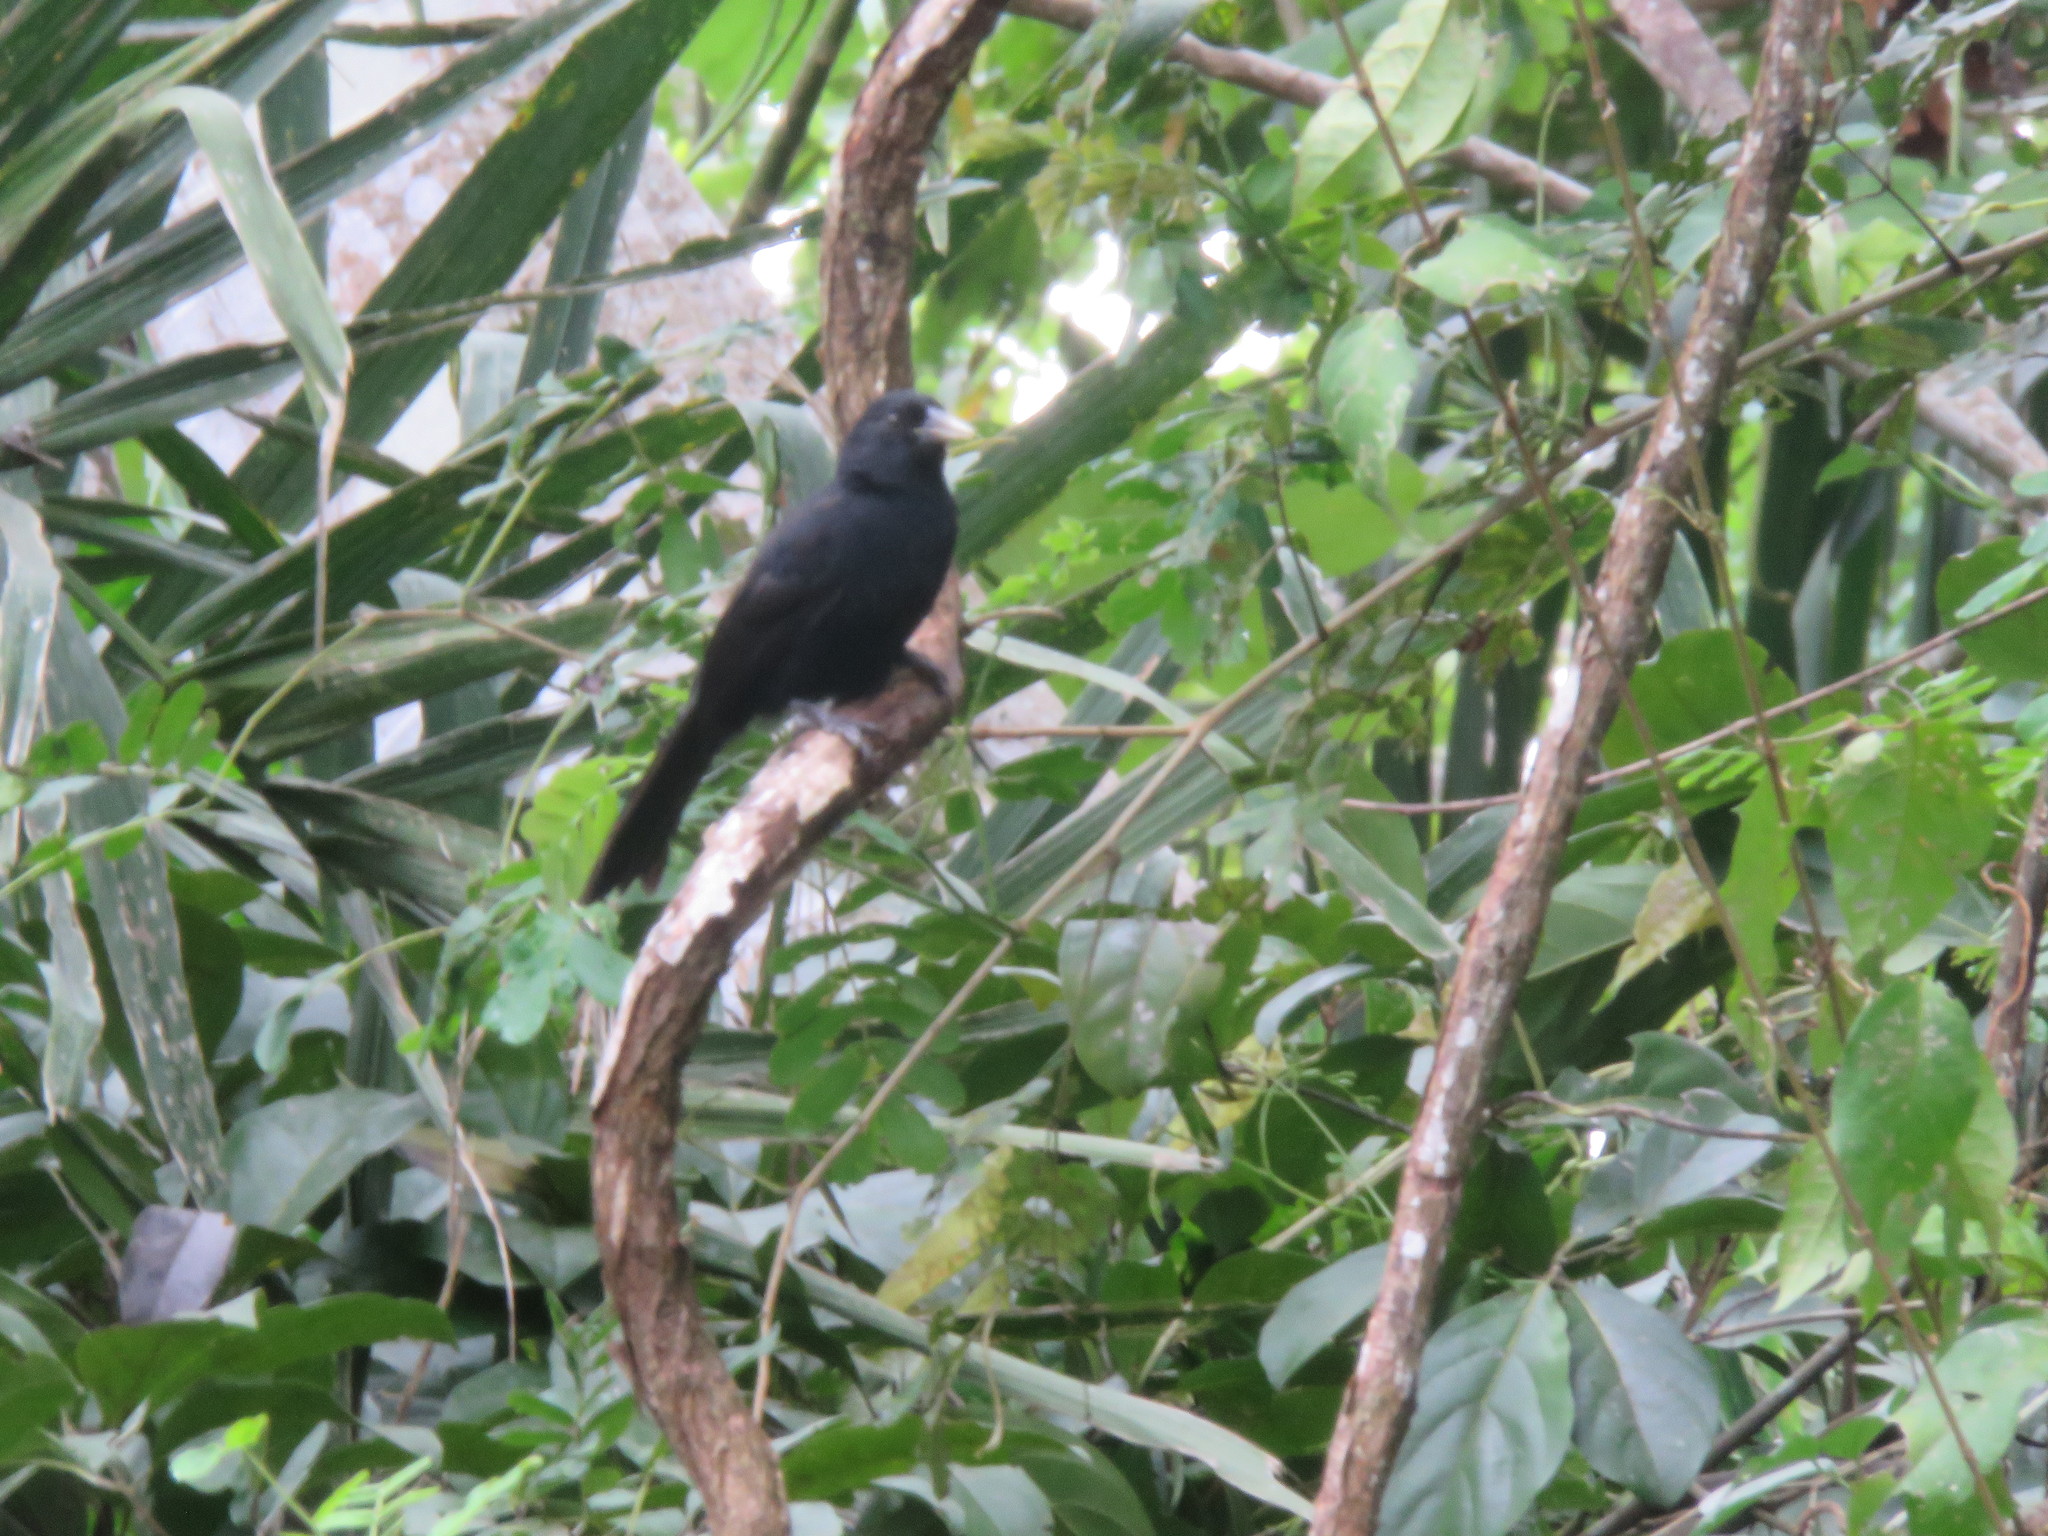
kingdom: Animalia
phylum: Chordata
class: Aves
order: Passeriformes
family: Icteridae
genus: Cacicus
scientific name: Cacicus solitarius
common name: Solitary cacique
